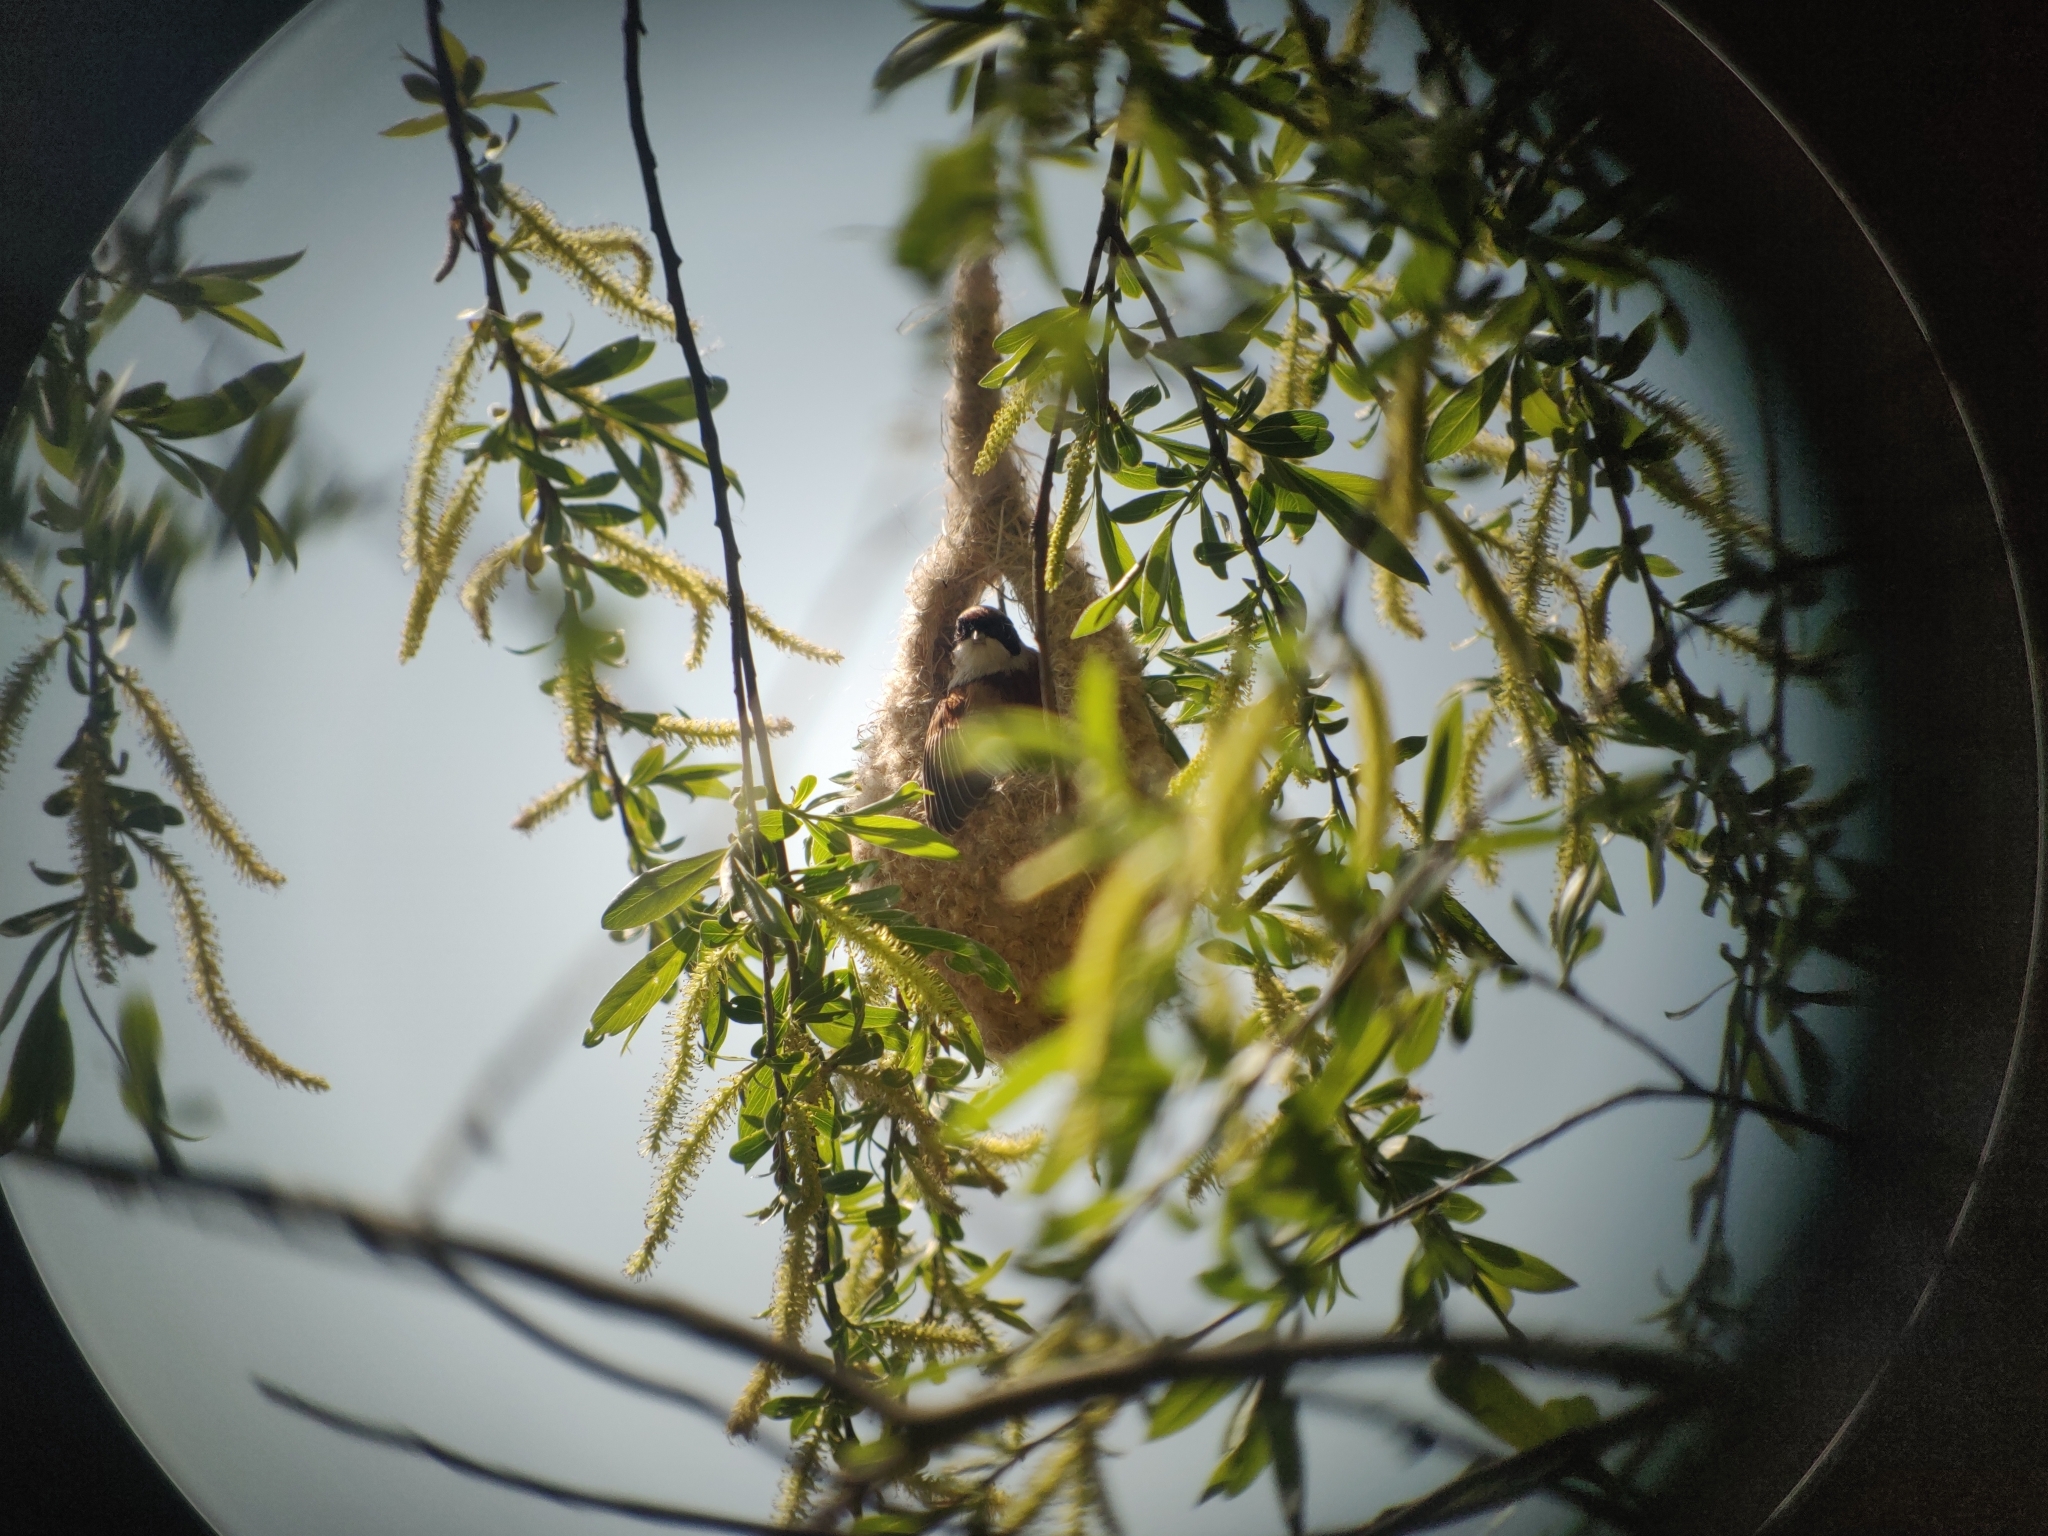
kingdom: Animalia
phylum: Chordata
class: Aves
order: Passeriformes
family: Remizidae
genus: Remiz
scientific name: Remiz pendulinus
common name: Eurasian penduline tit
